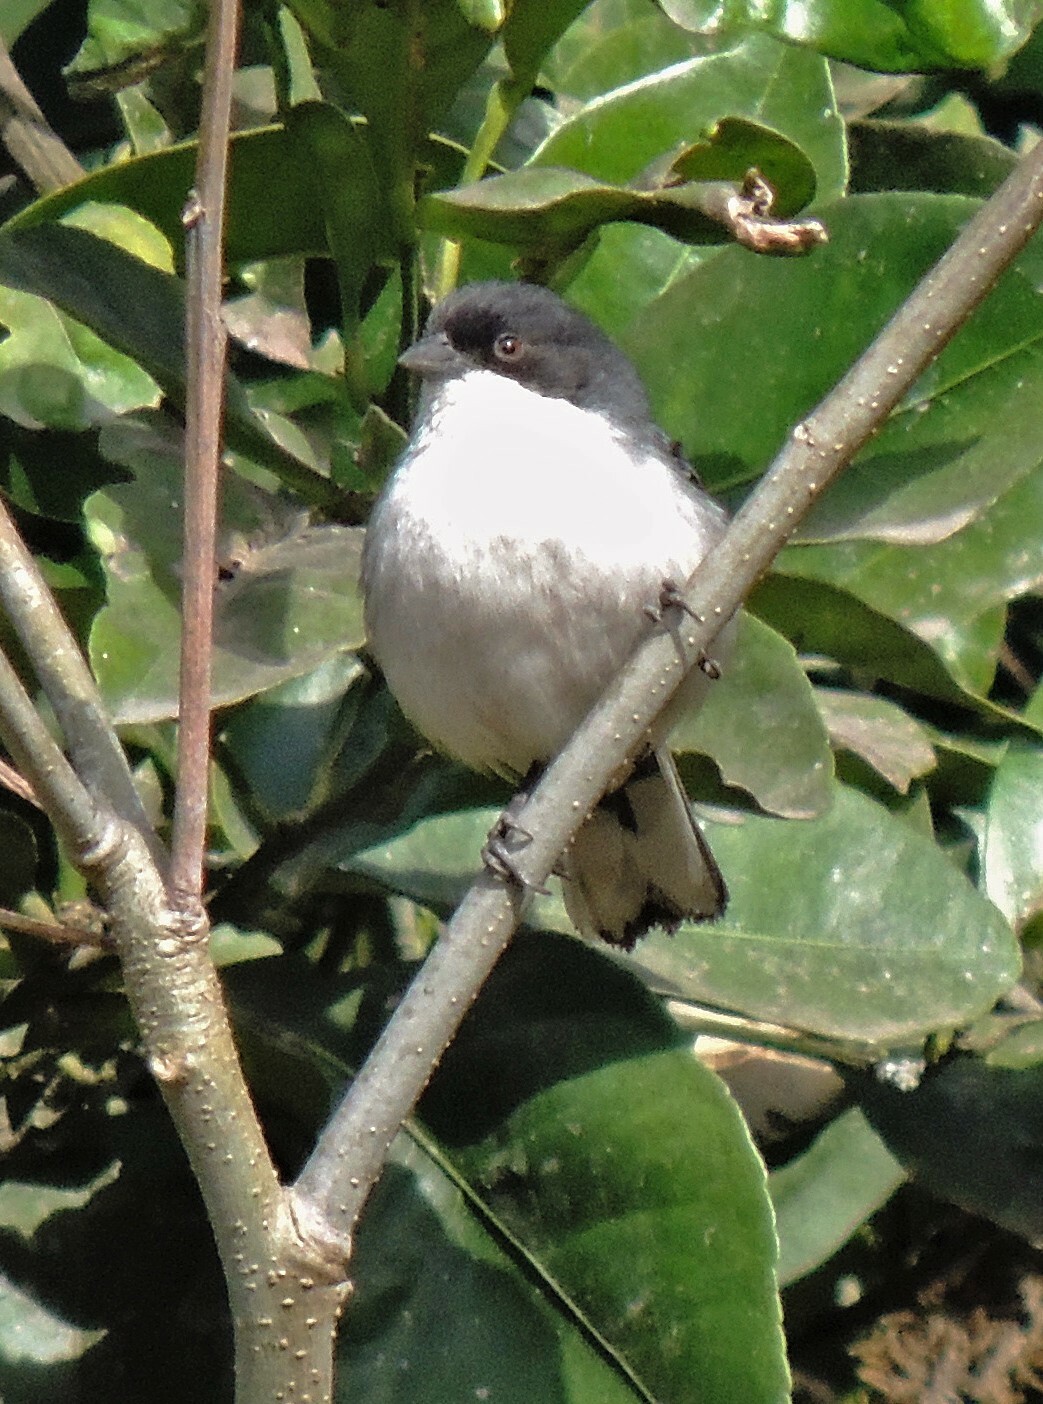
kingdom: Animalia
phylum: Chordata
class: Aves
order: Passeriformes
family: Thraupidae
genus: Microspingus
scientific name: Microspingus melanoleucus
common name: Black-capped warbling-finch
